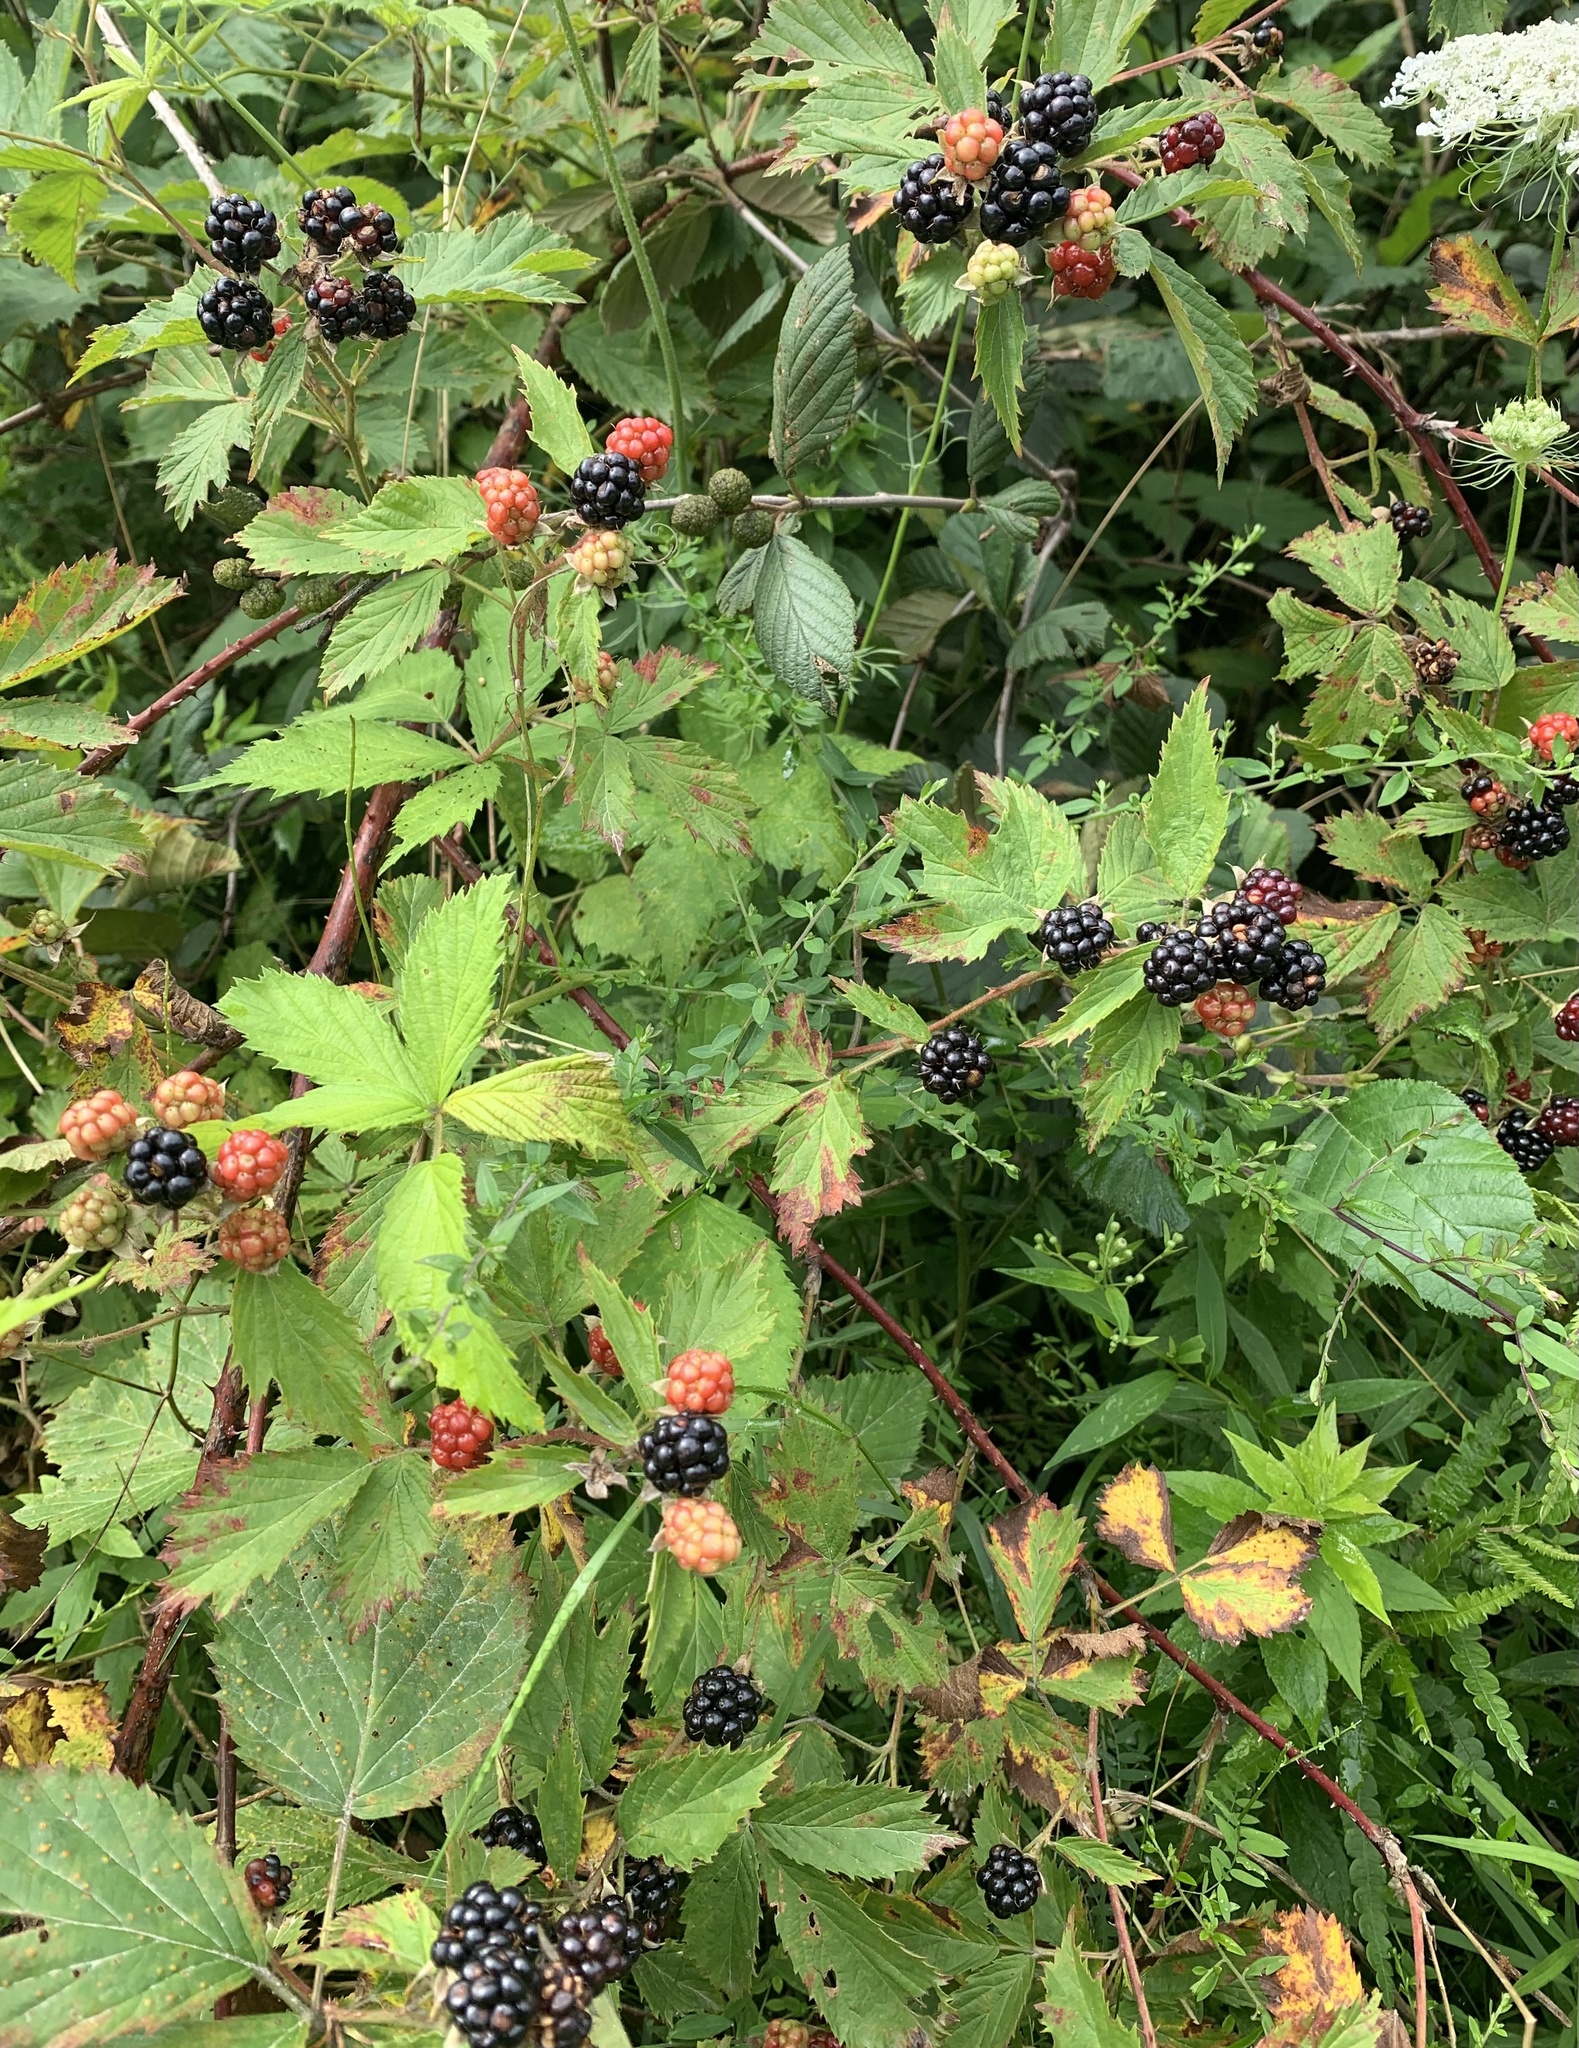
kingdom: Plantae
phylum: Tracheophyta
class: Magnoliopsida
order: Rosales
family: Rosaceae
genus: Rubus
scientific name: Rubus allegheniensis
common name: Allegheny blackberry
